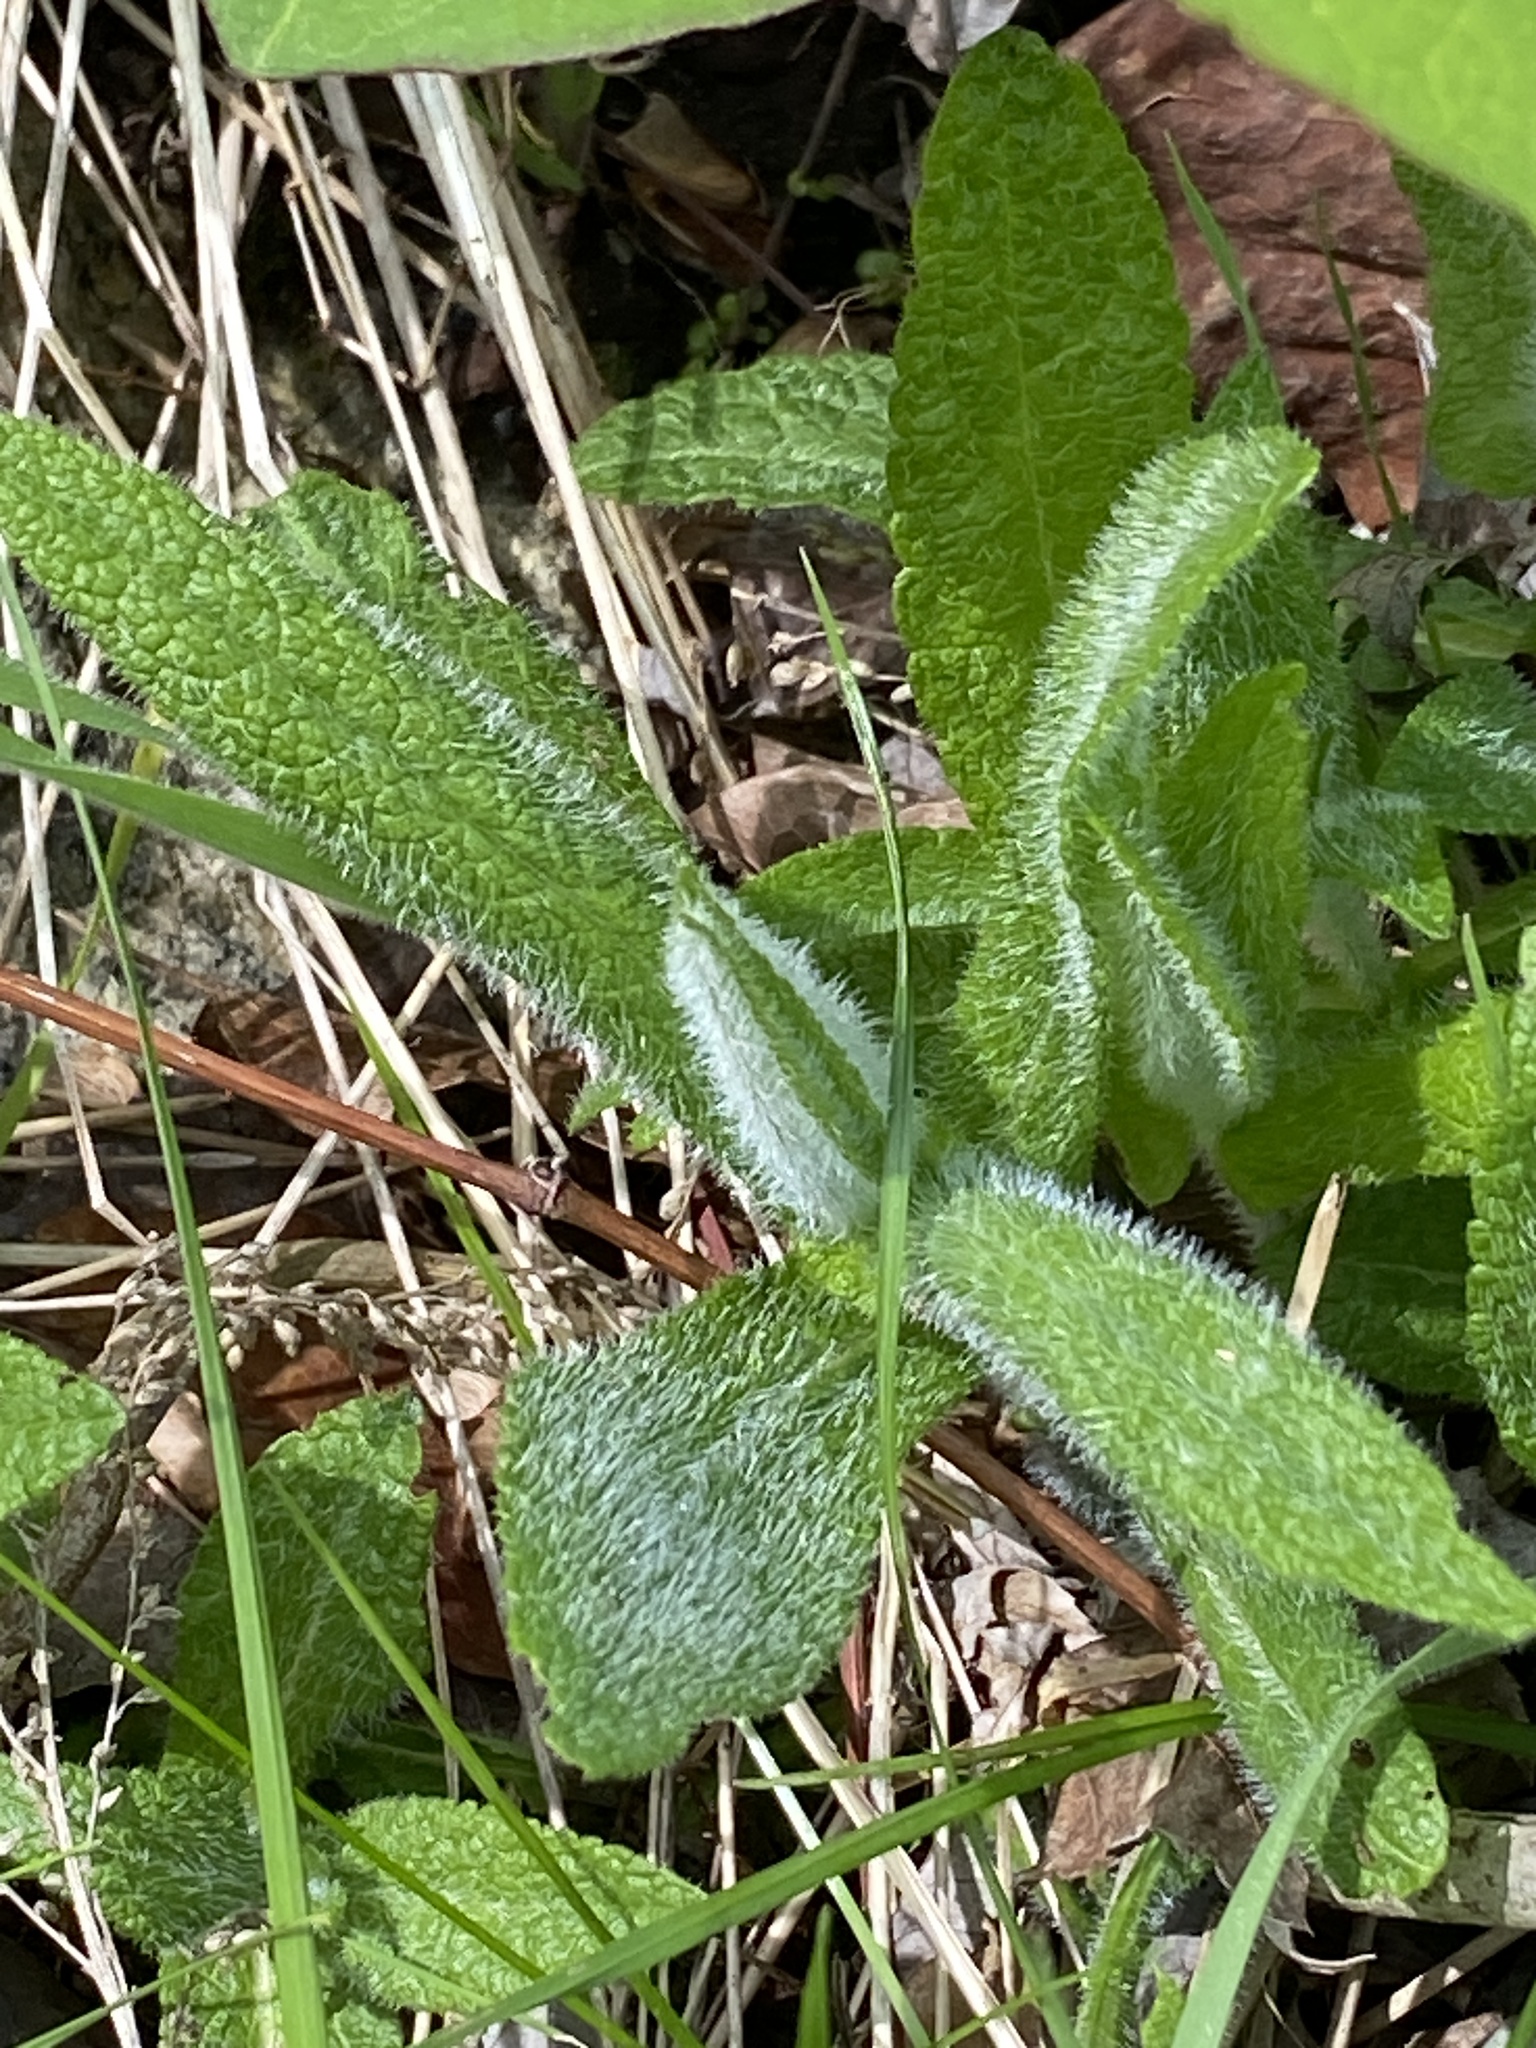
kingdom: Plantae
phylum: Tracheophyta
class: Magnoliopsida
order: Asterales
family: Asteraceae
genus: Eupatorium
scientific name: Eupatorium perfoliatum
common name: Boneset
